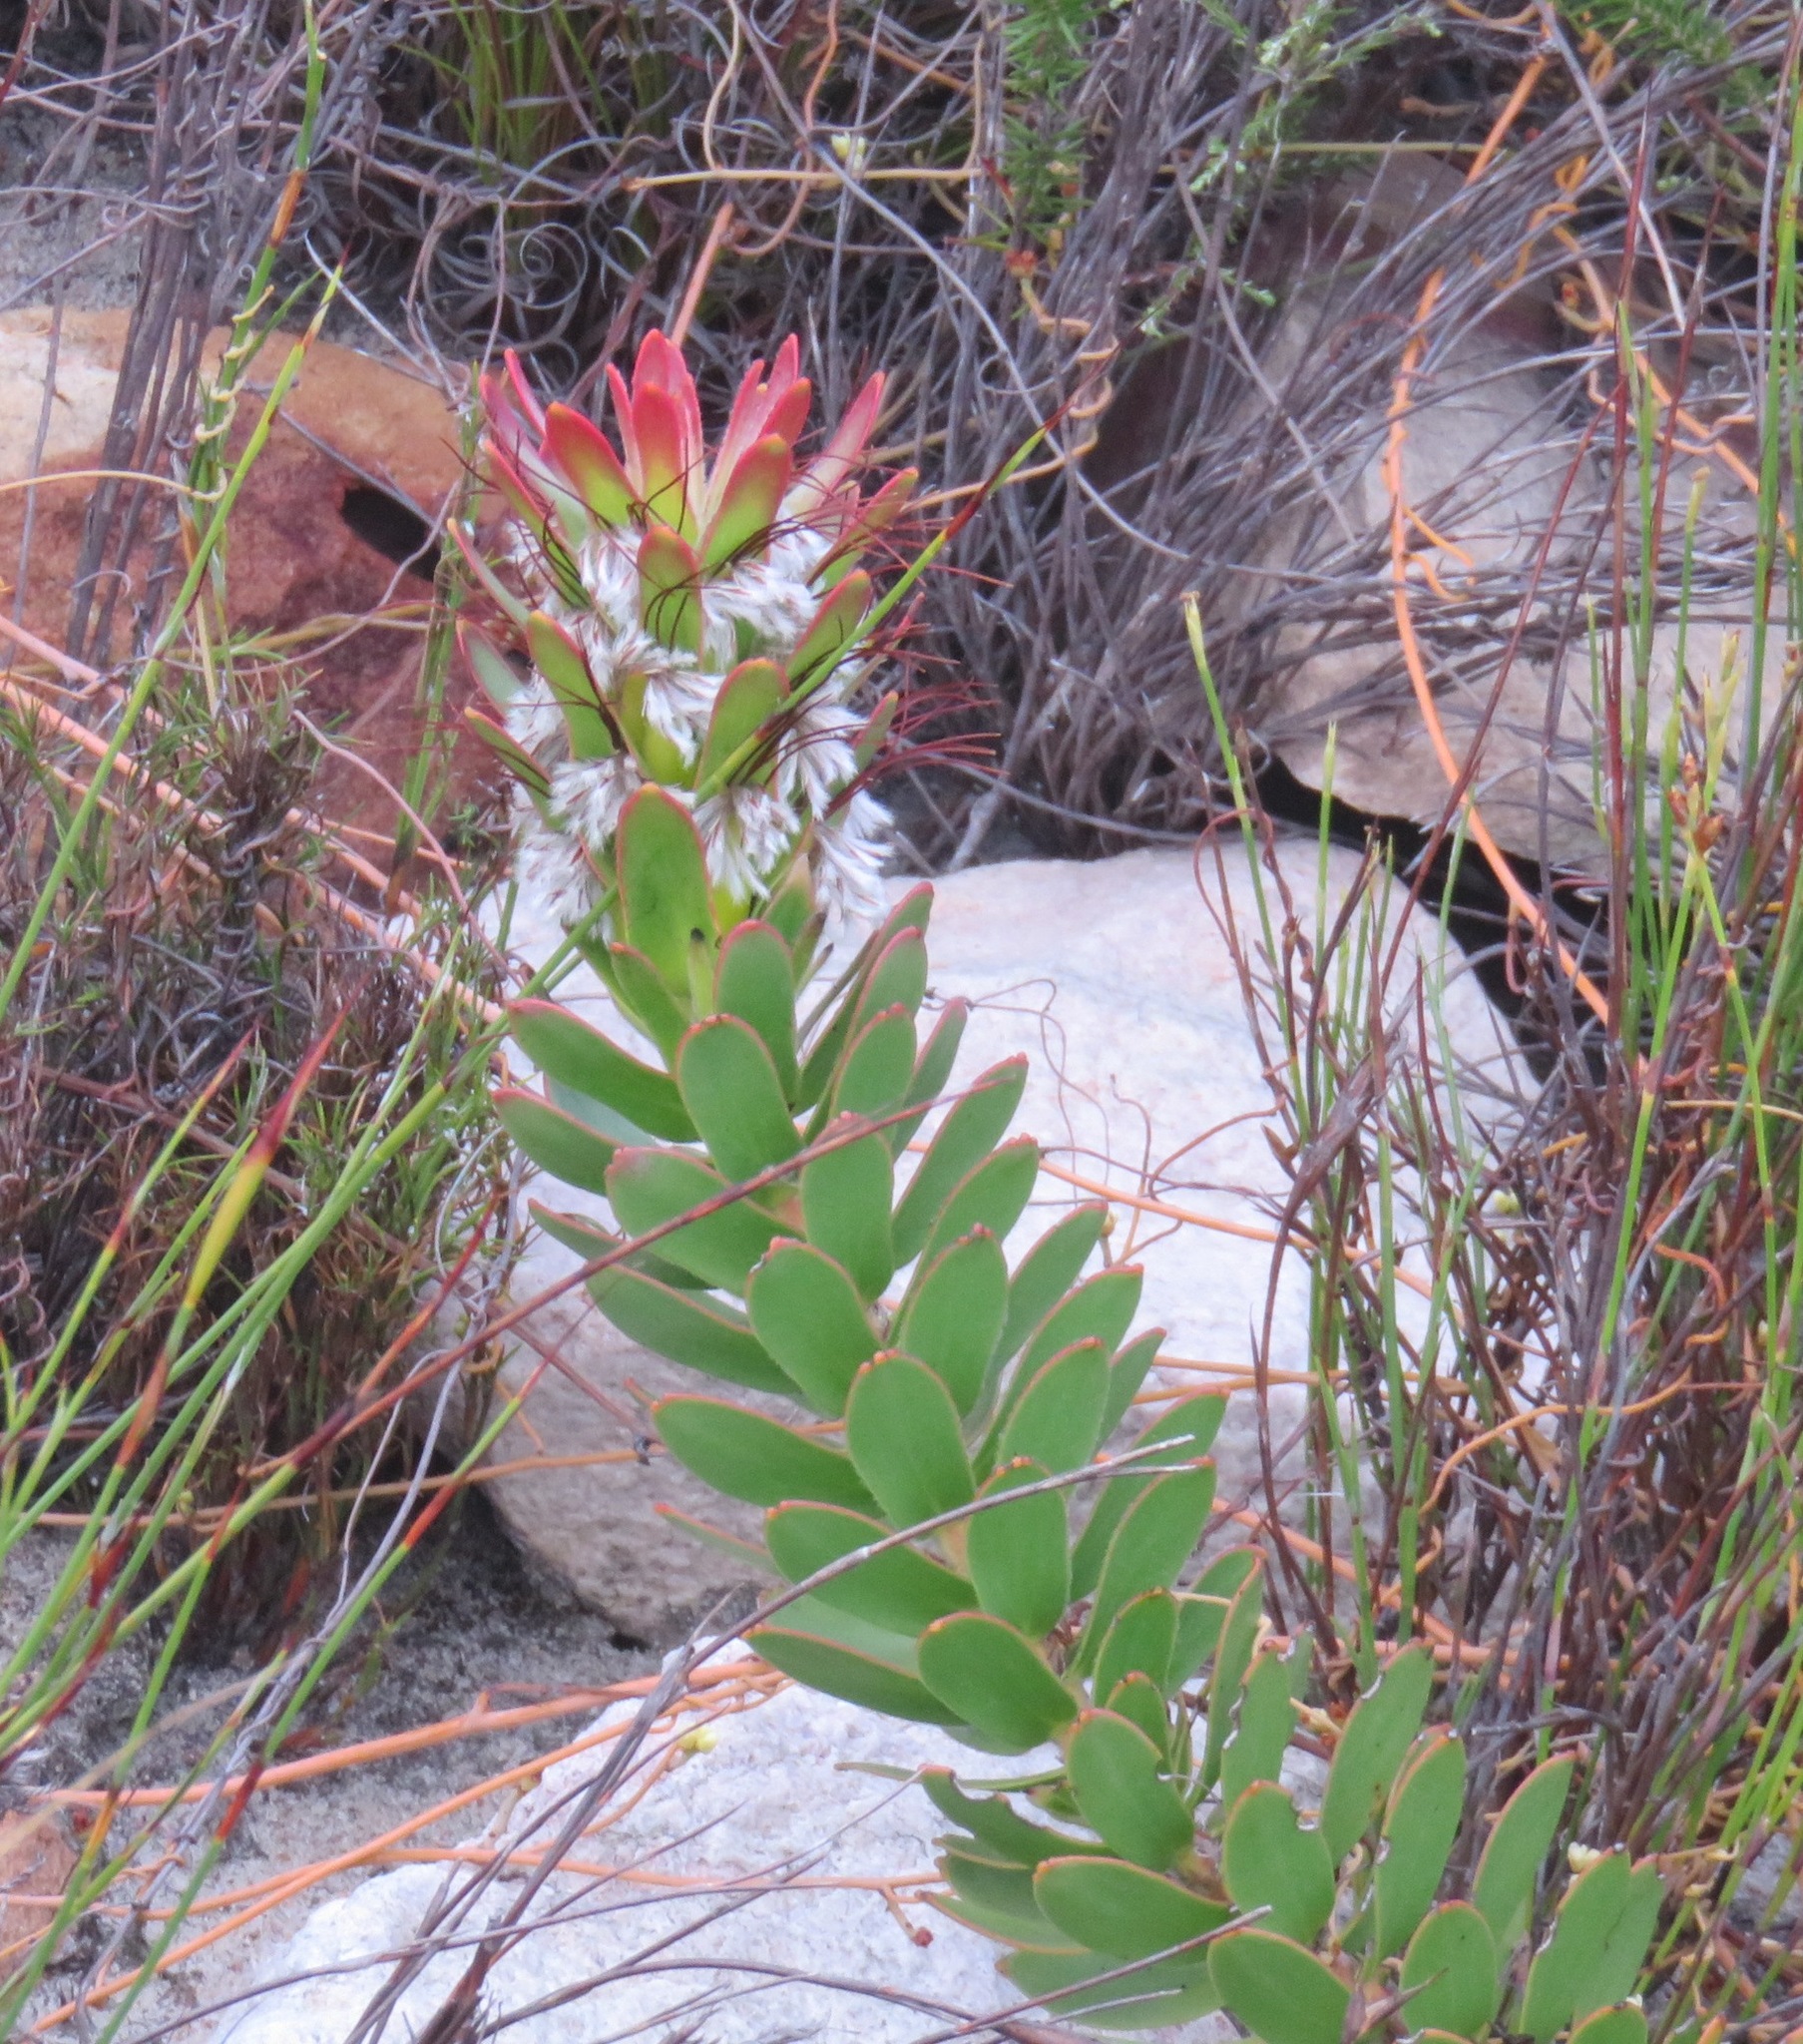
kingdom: Plantae
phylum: Tracheophyta
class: Magnoliopsida
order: Proteales
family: Proteaceae
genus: Mimetes
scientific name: Mimetes cucullatus
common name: Common pagoda
